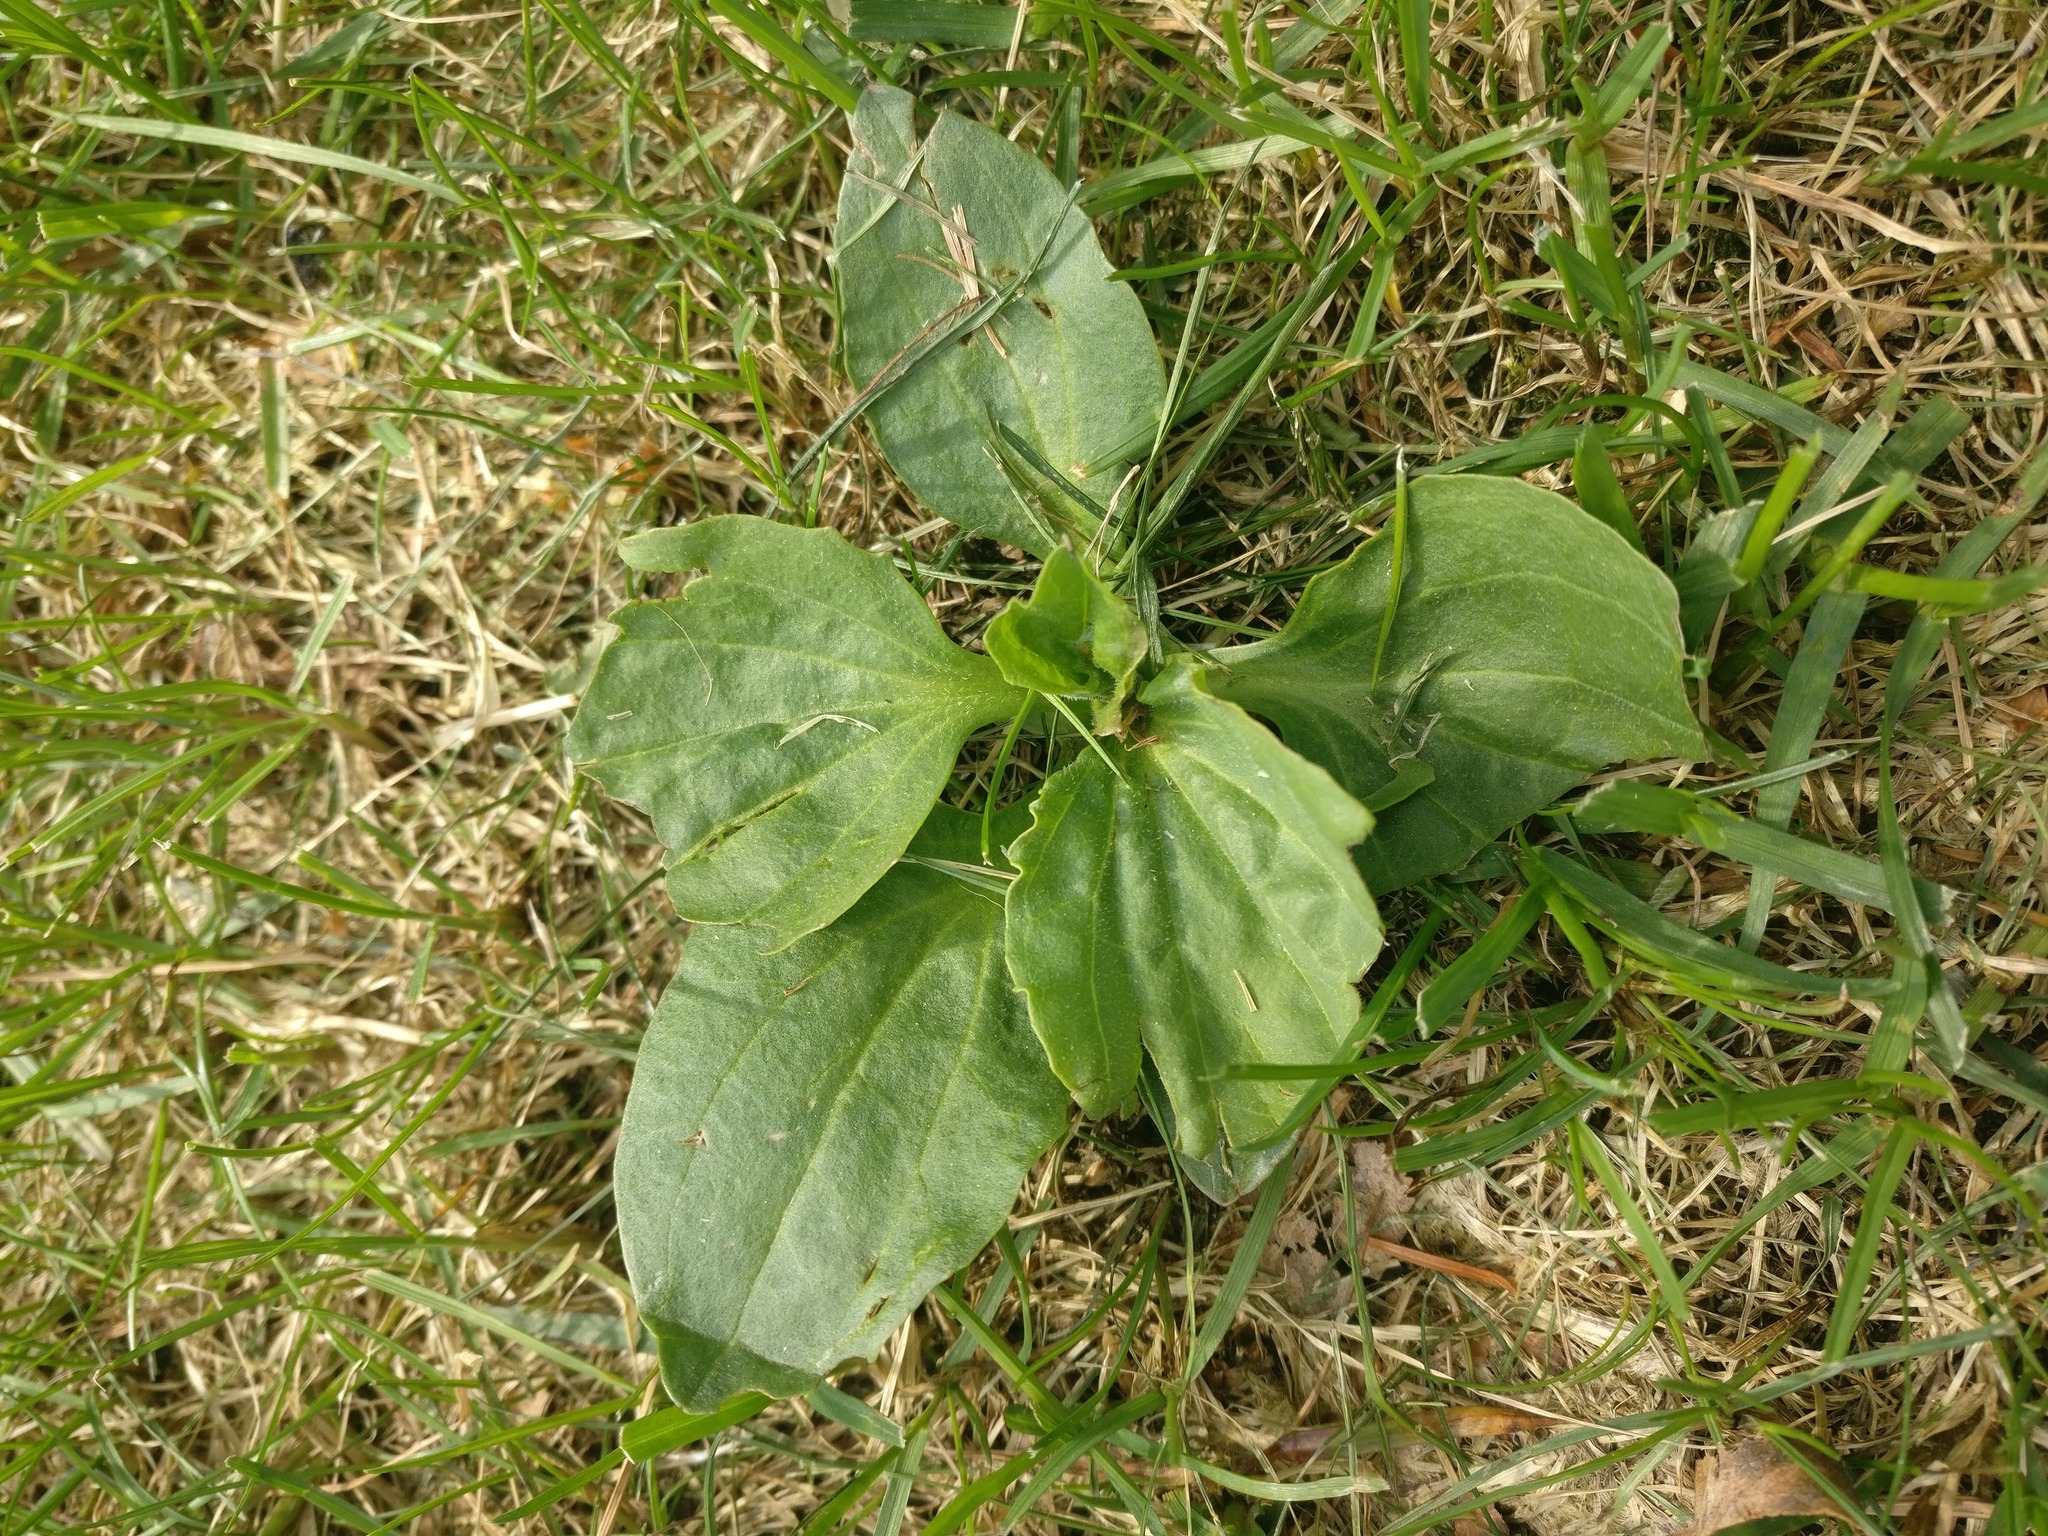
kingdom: Plantae
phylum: Tracheophyta
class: Magnoliopsida
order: Lamiales
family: Plantaginaceae
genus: Plantago
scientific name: Plantago major
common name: Common plantain
